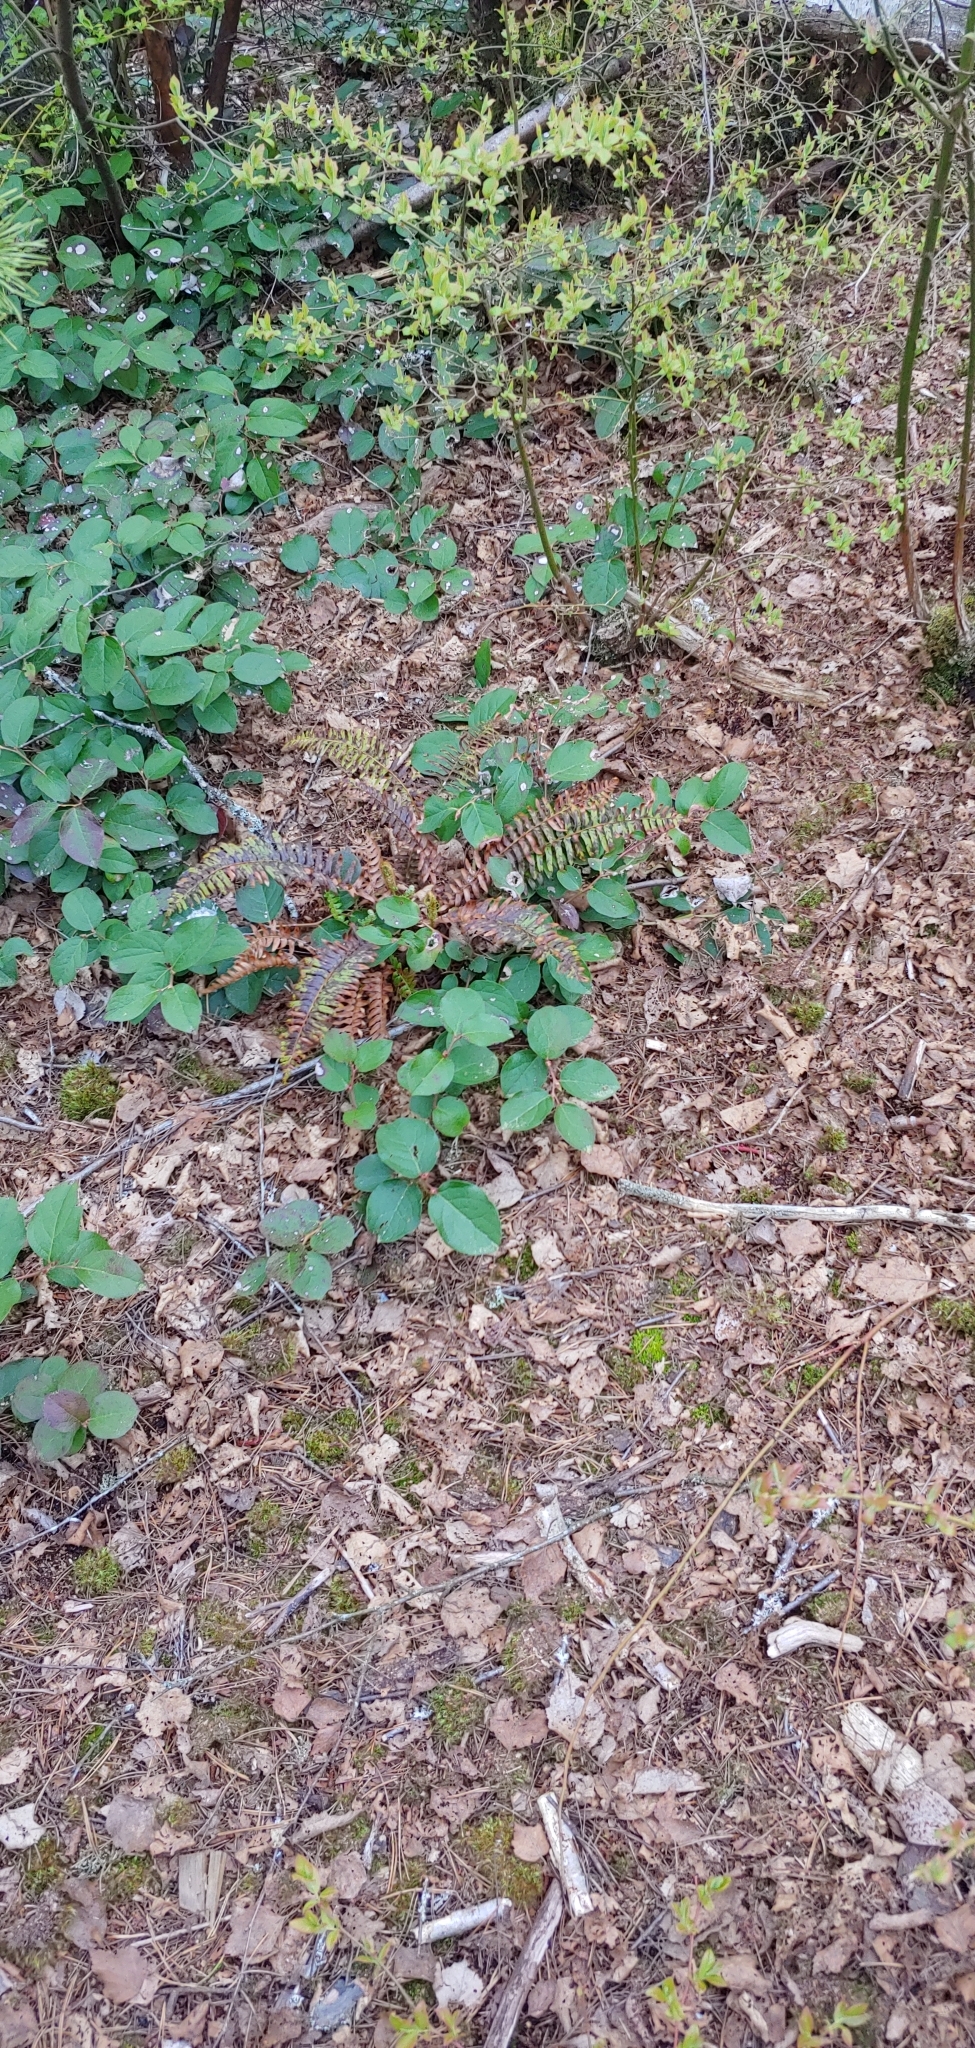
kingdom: Plantae
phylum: Tracheophyta
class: Magnoliopsida
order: Ericales
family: Ericaceae
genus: Gaultheria
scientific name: Gaultheria shallon
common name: Shallon
